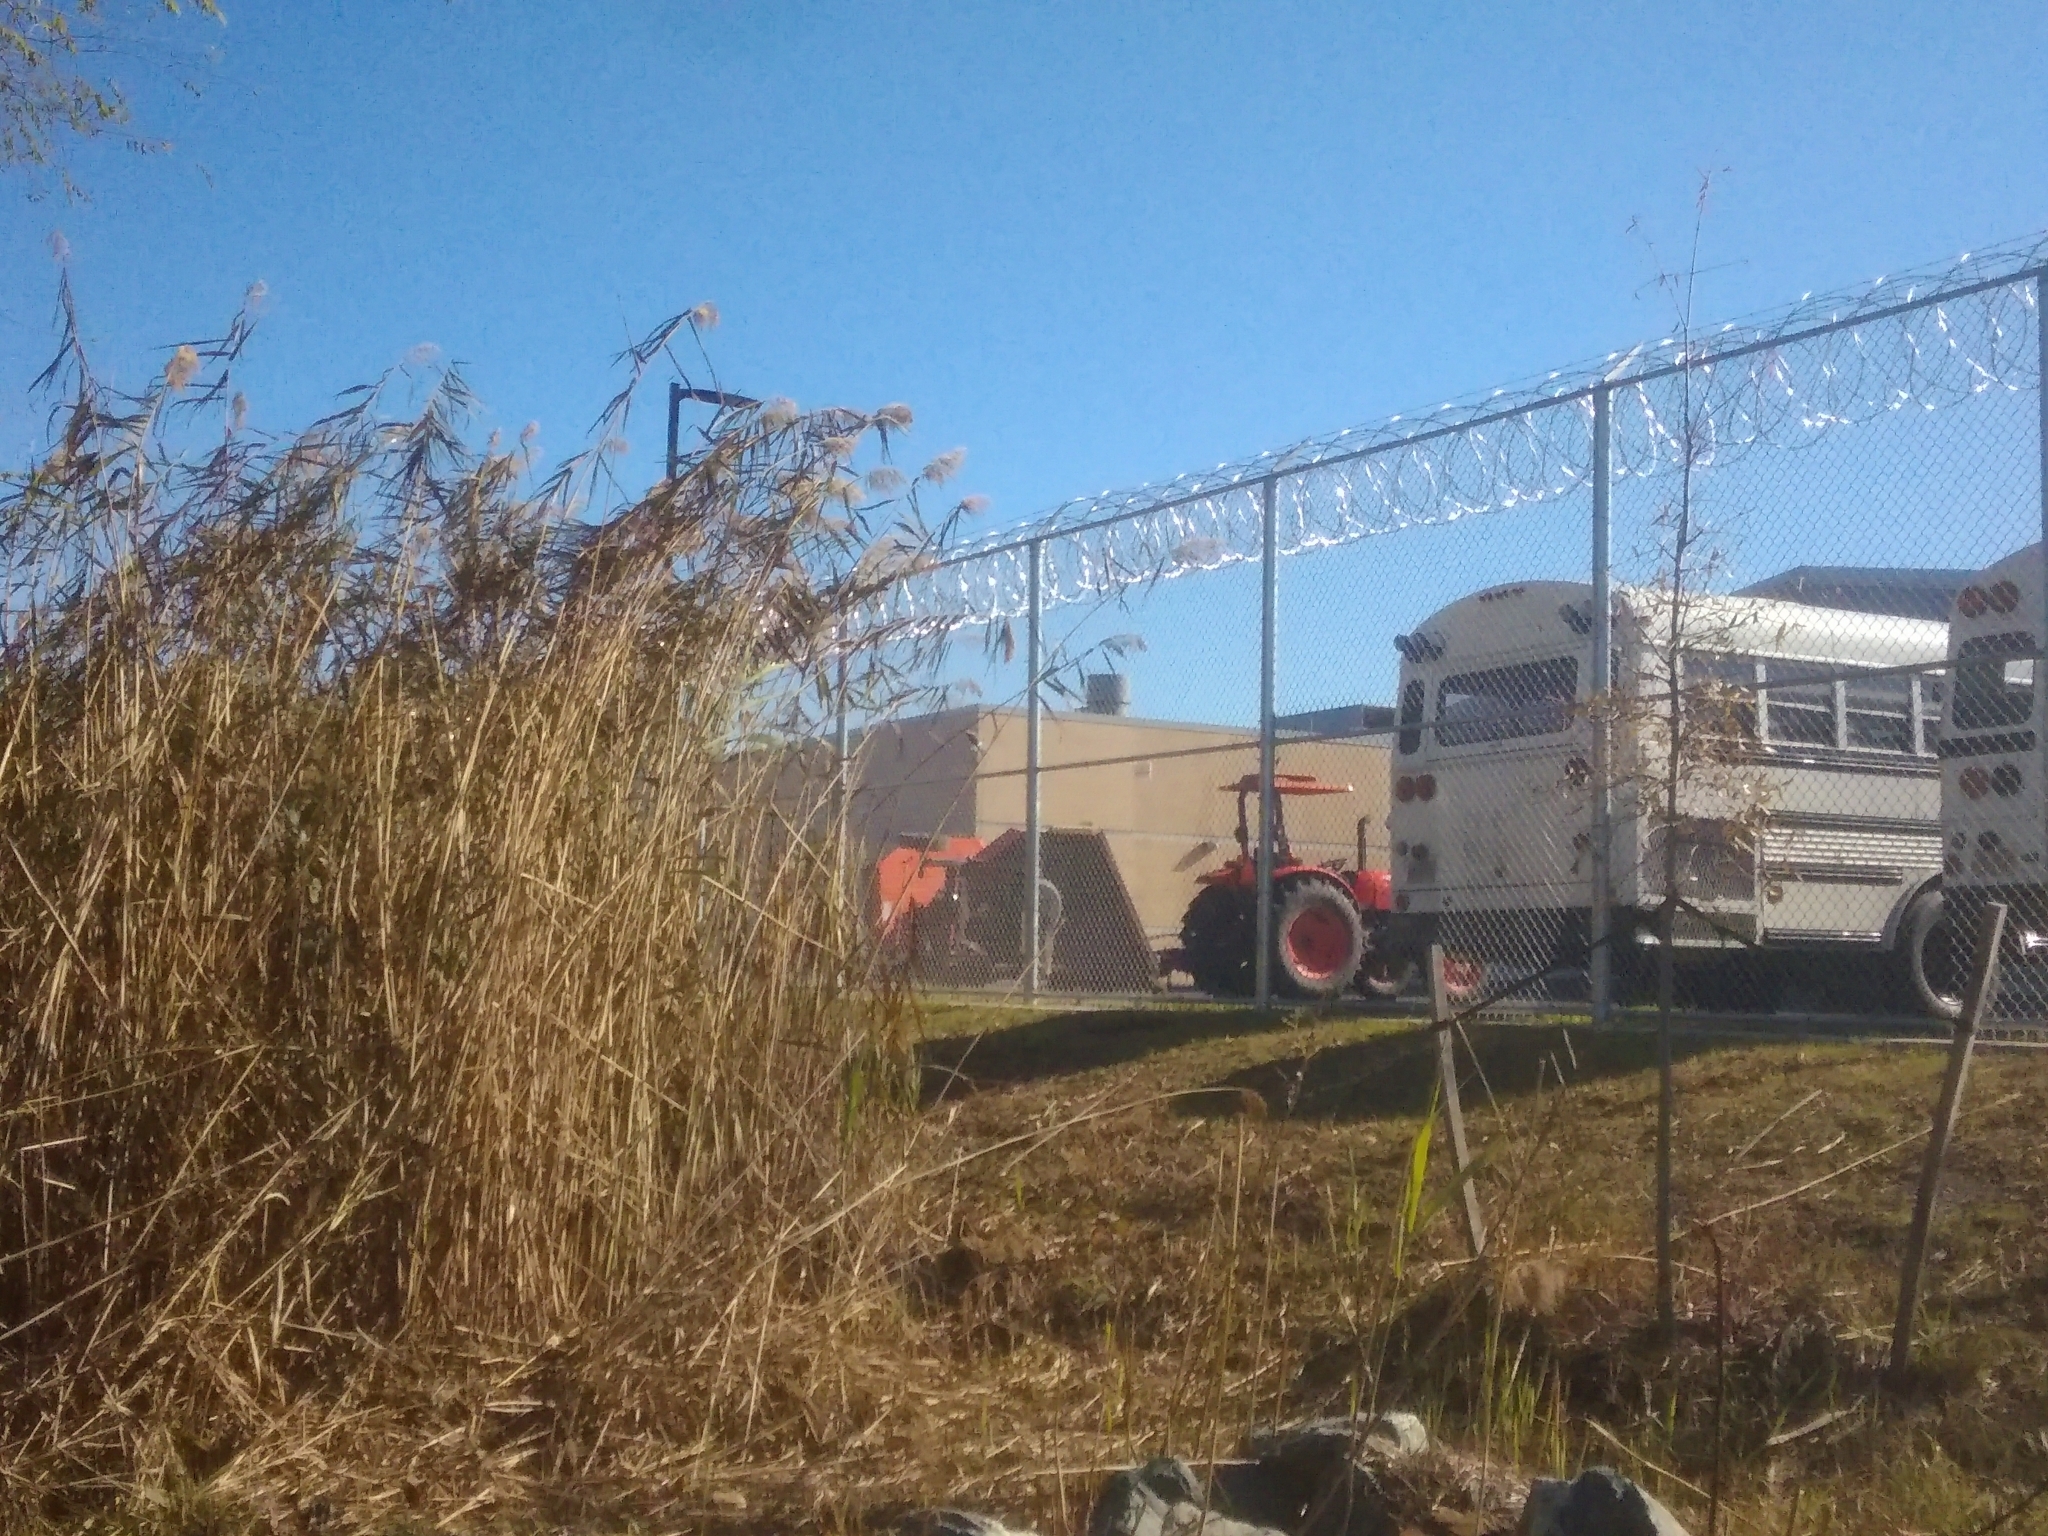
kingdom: Animalia
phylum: Chordata
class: Testudines
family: Chelydridae
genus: Chelydra
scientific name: Chelydra serpentina
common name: Common snapping turtle
